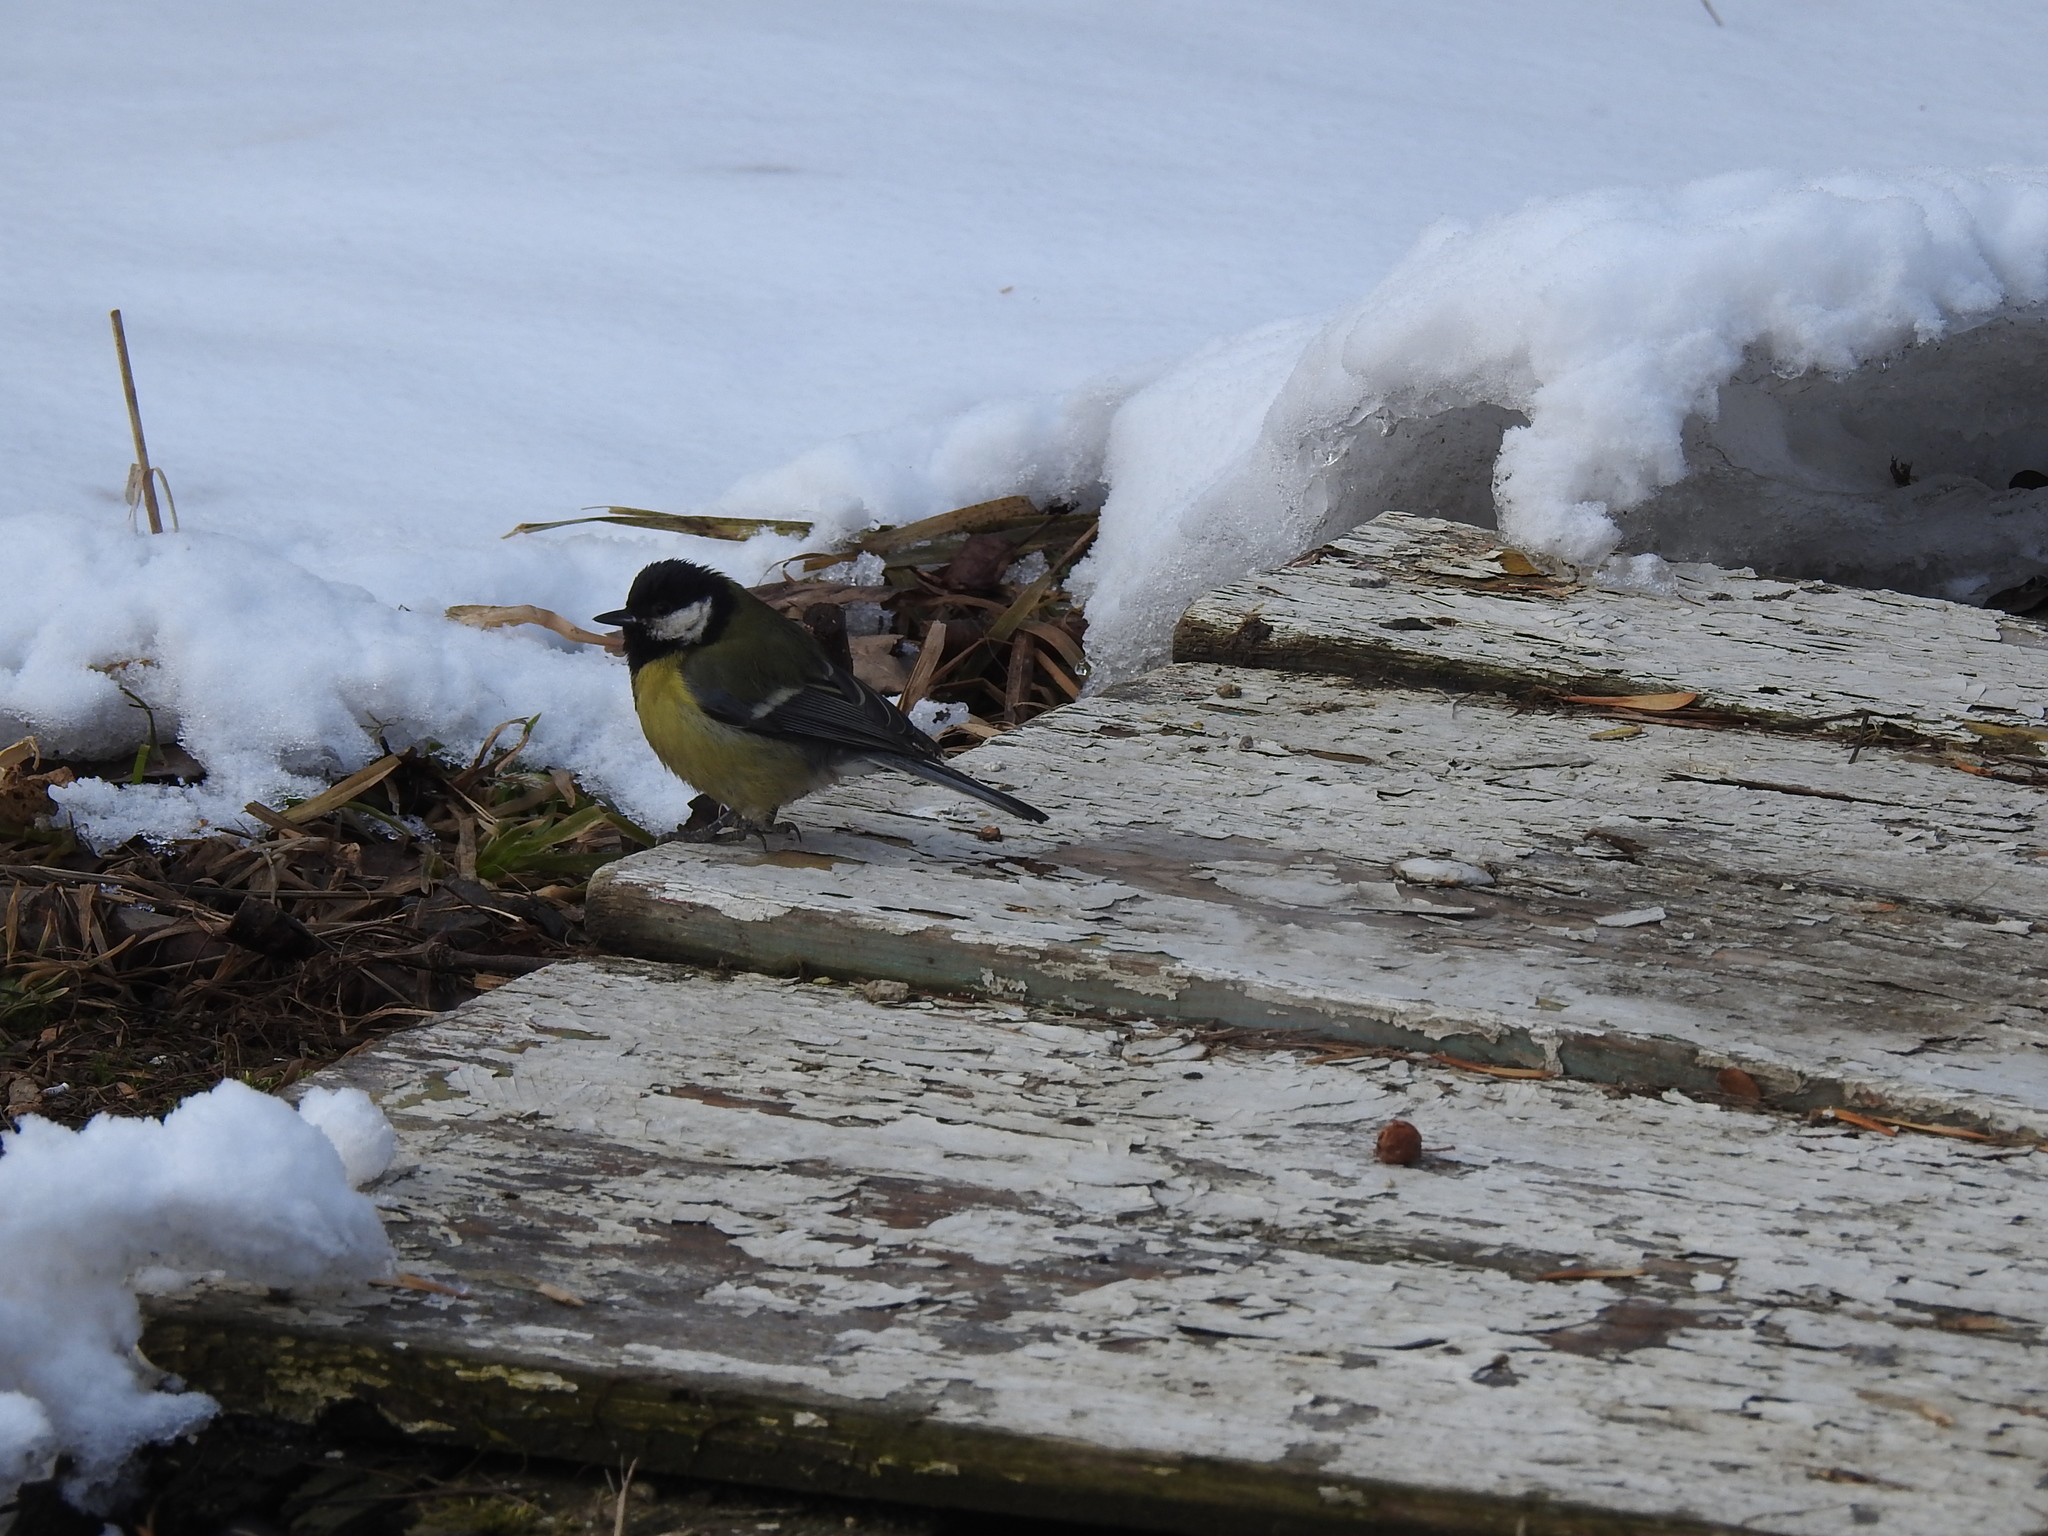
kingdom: Animalia
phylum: Chordata
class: Aves
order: Passeriformes
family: Paridae
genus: Parus
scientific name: Parus major
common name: Great tit
